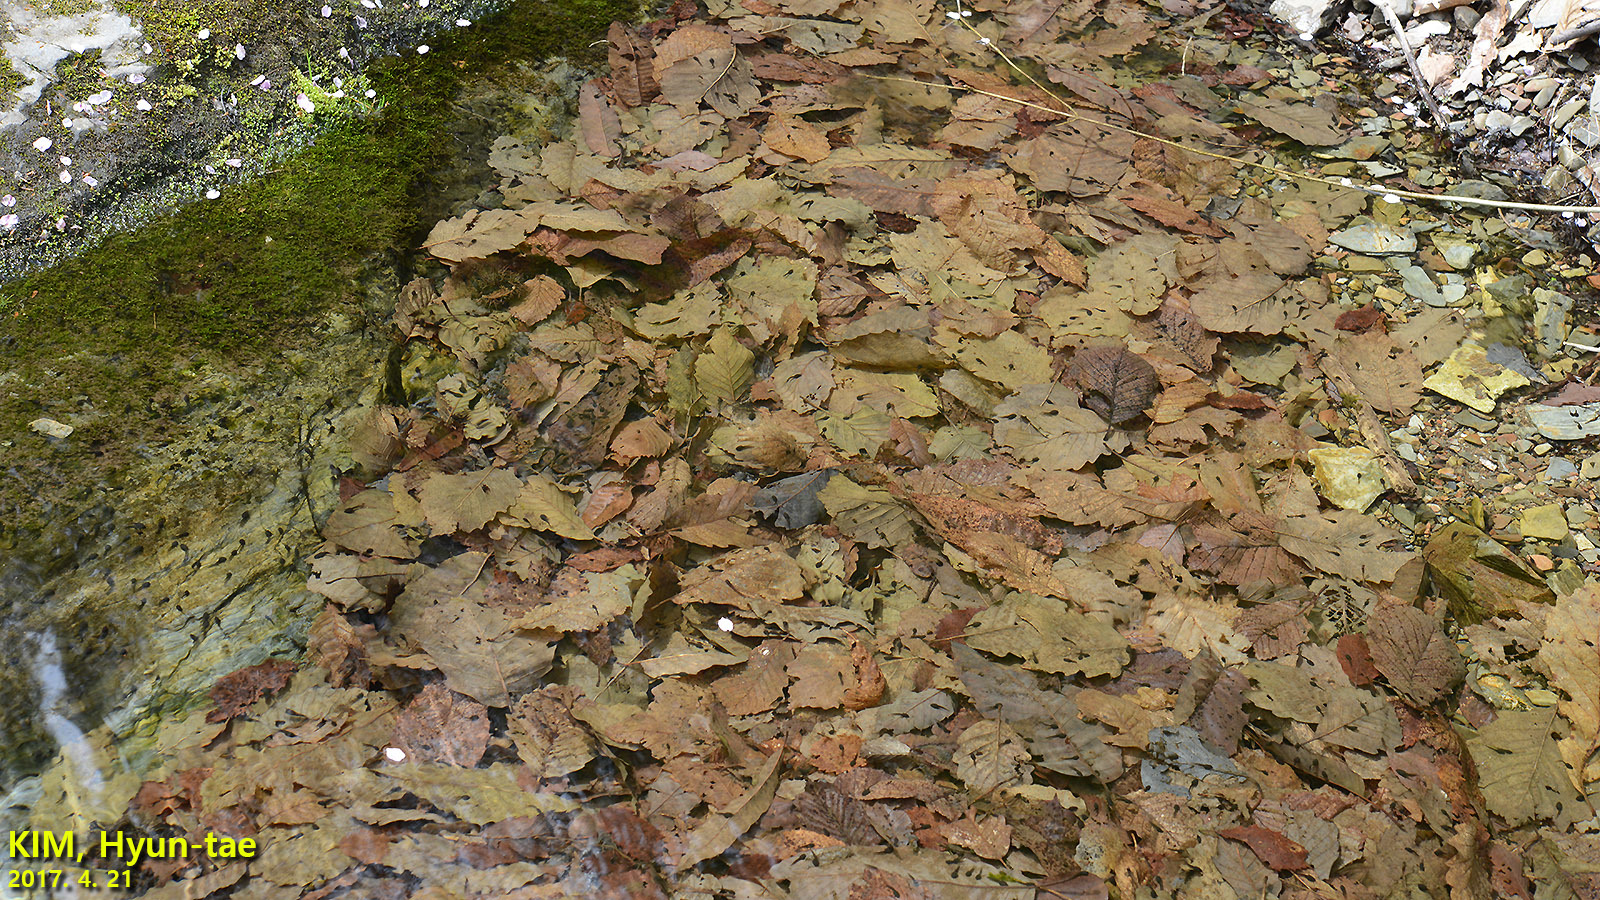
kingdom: Animalia
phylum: Chordata
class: Amphibia
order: Anura
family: Ranidae
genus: Rana
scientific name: Rana huanrenensis
